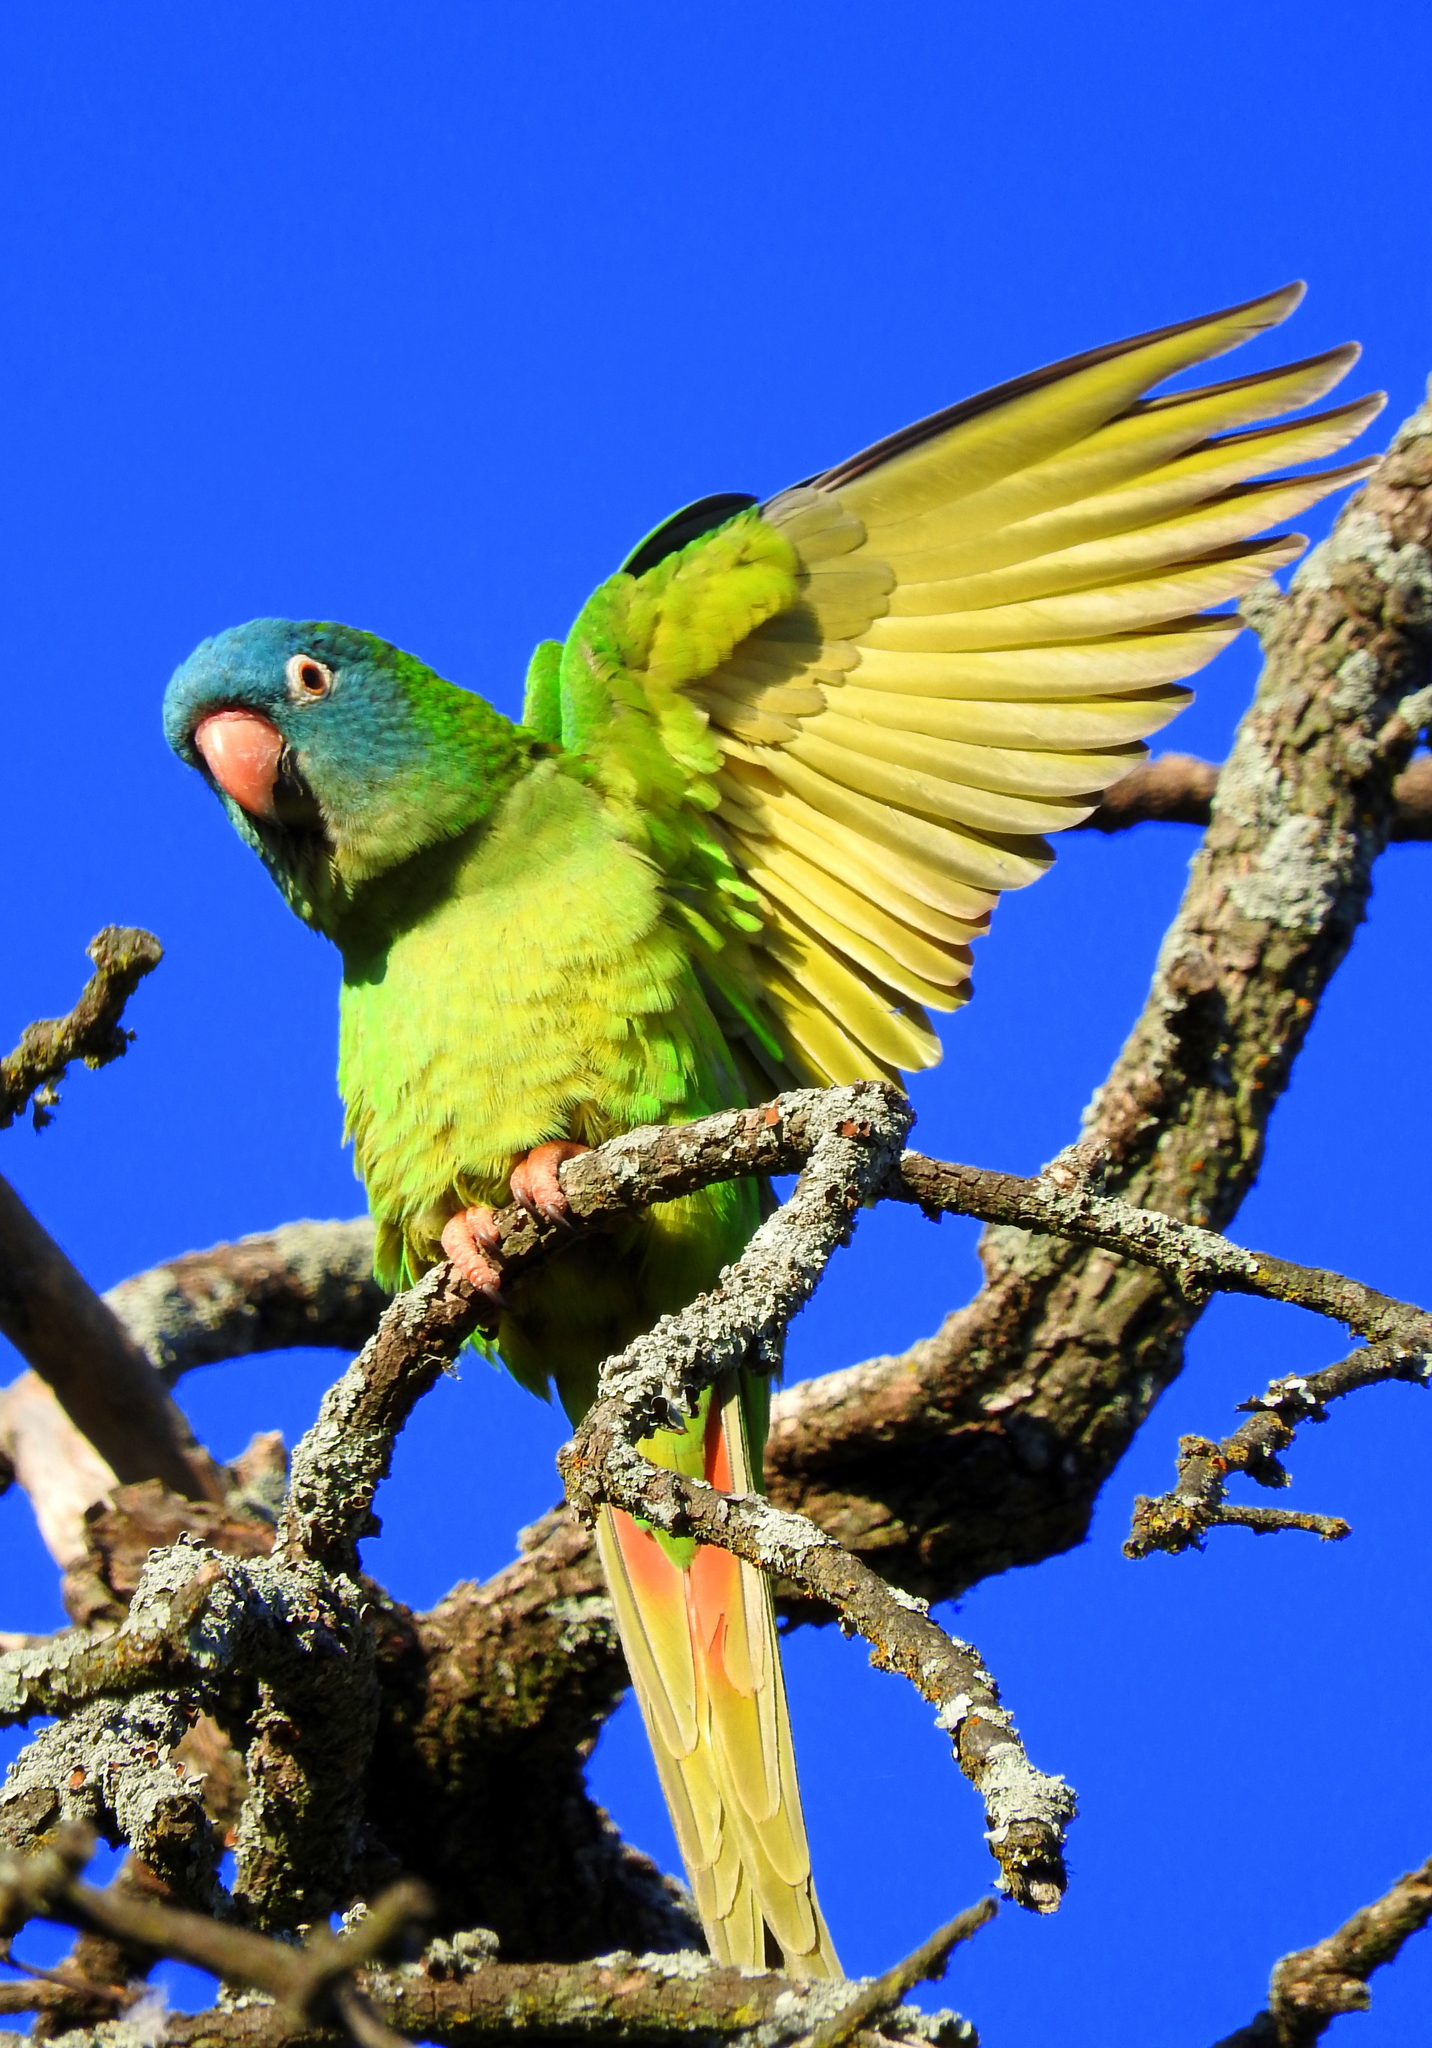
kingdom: Animalia
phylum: Chordata
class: Aves
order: Psittaciformes
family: Psittacidae
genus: Aratinga
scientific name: Aratinga acuticaudata
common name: Blue-crowned parakeet
